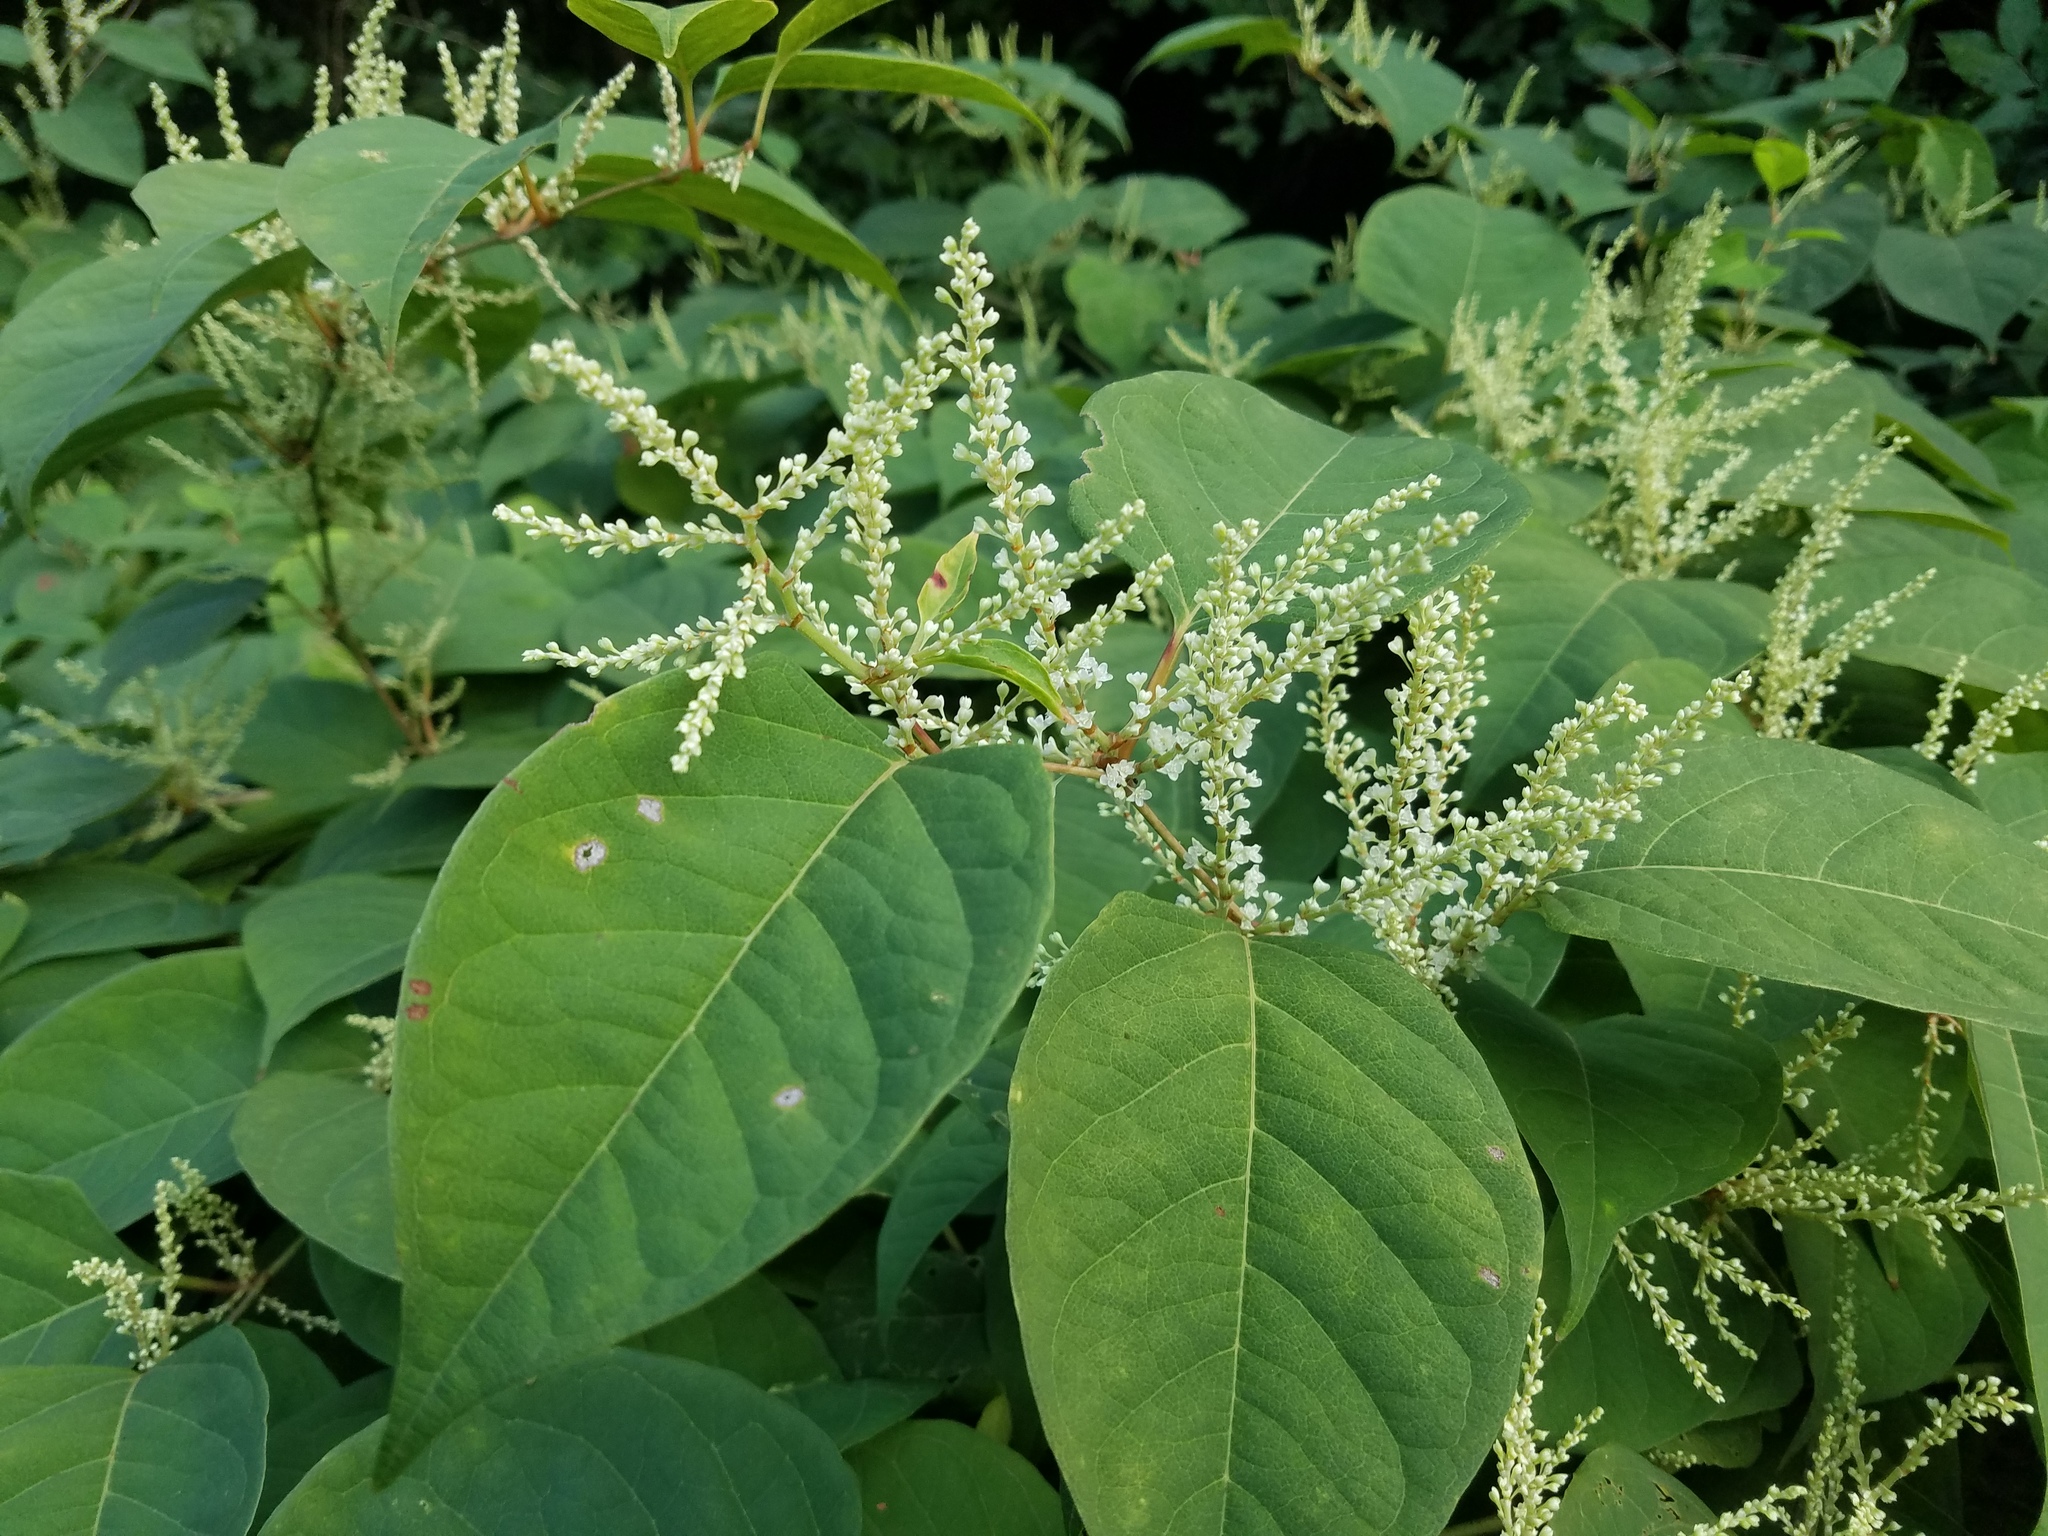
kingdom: Plantae
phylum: Tracheophyta
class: Magnoliopsida
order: Caryophyllales
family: Polygonaceae
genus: Reynoutria
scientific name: Reynoutria japonica
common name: Japanese knotweed
